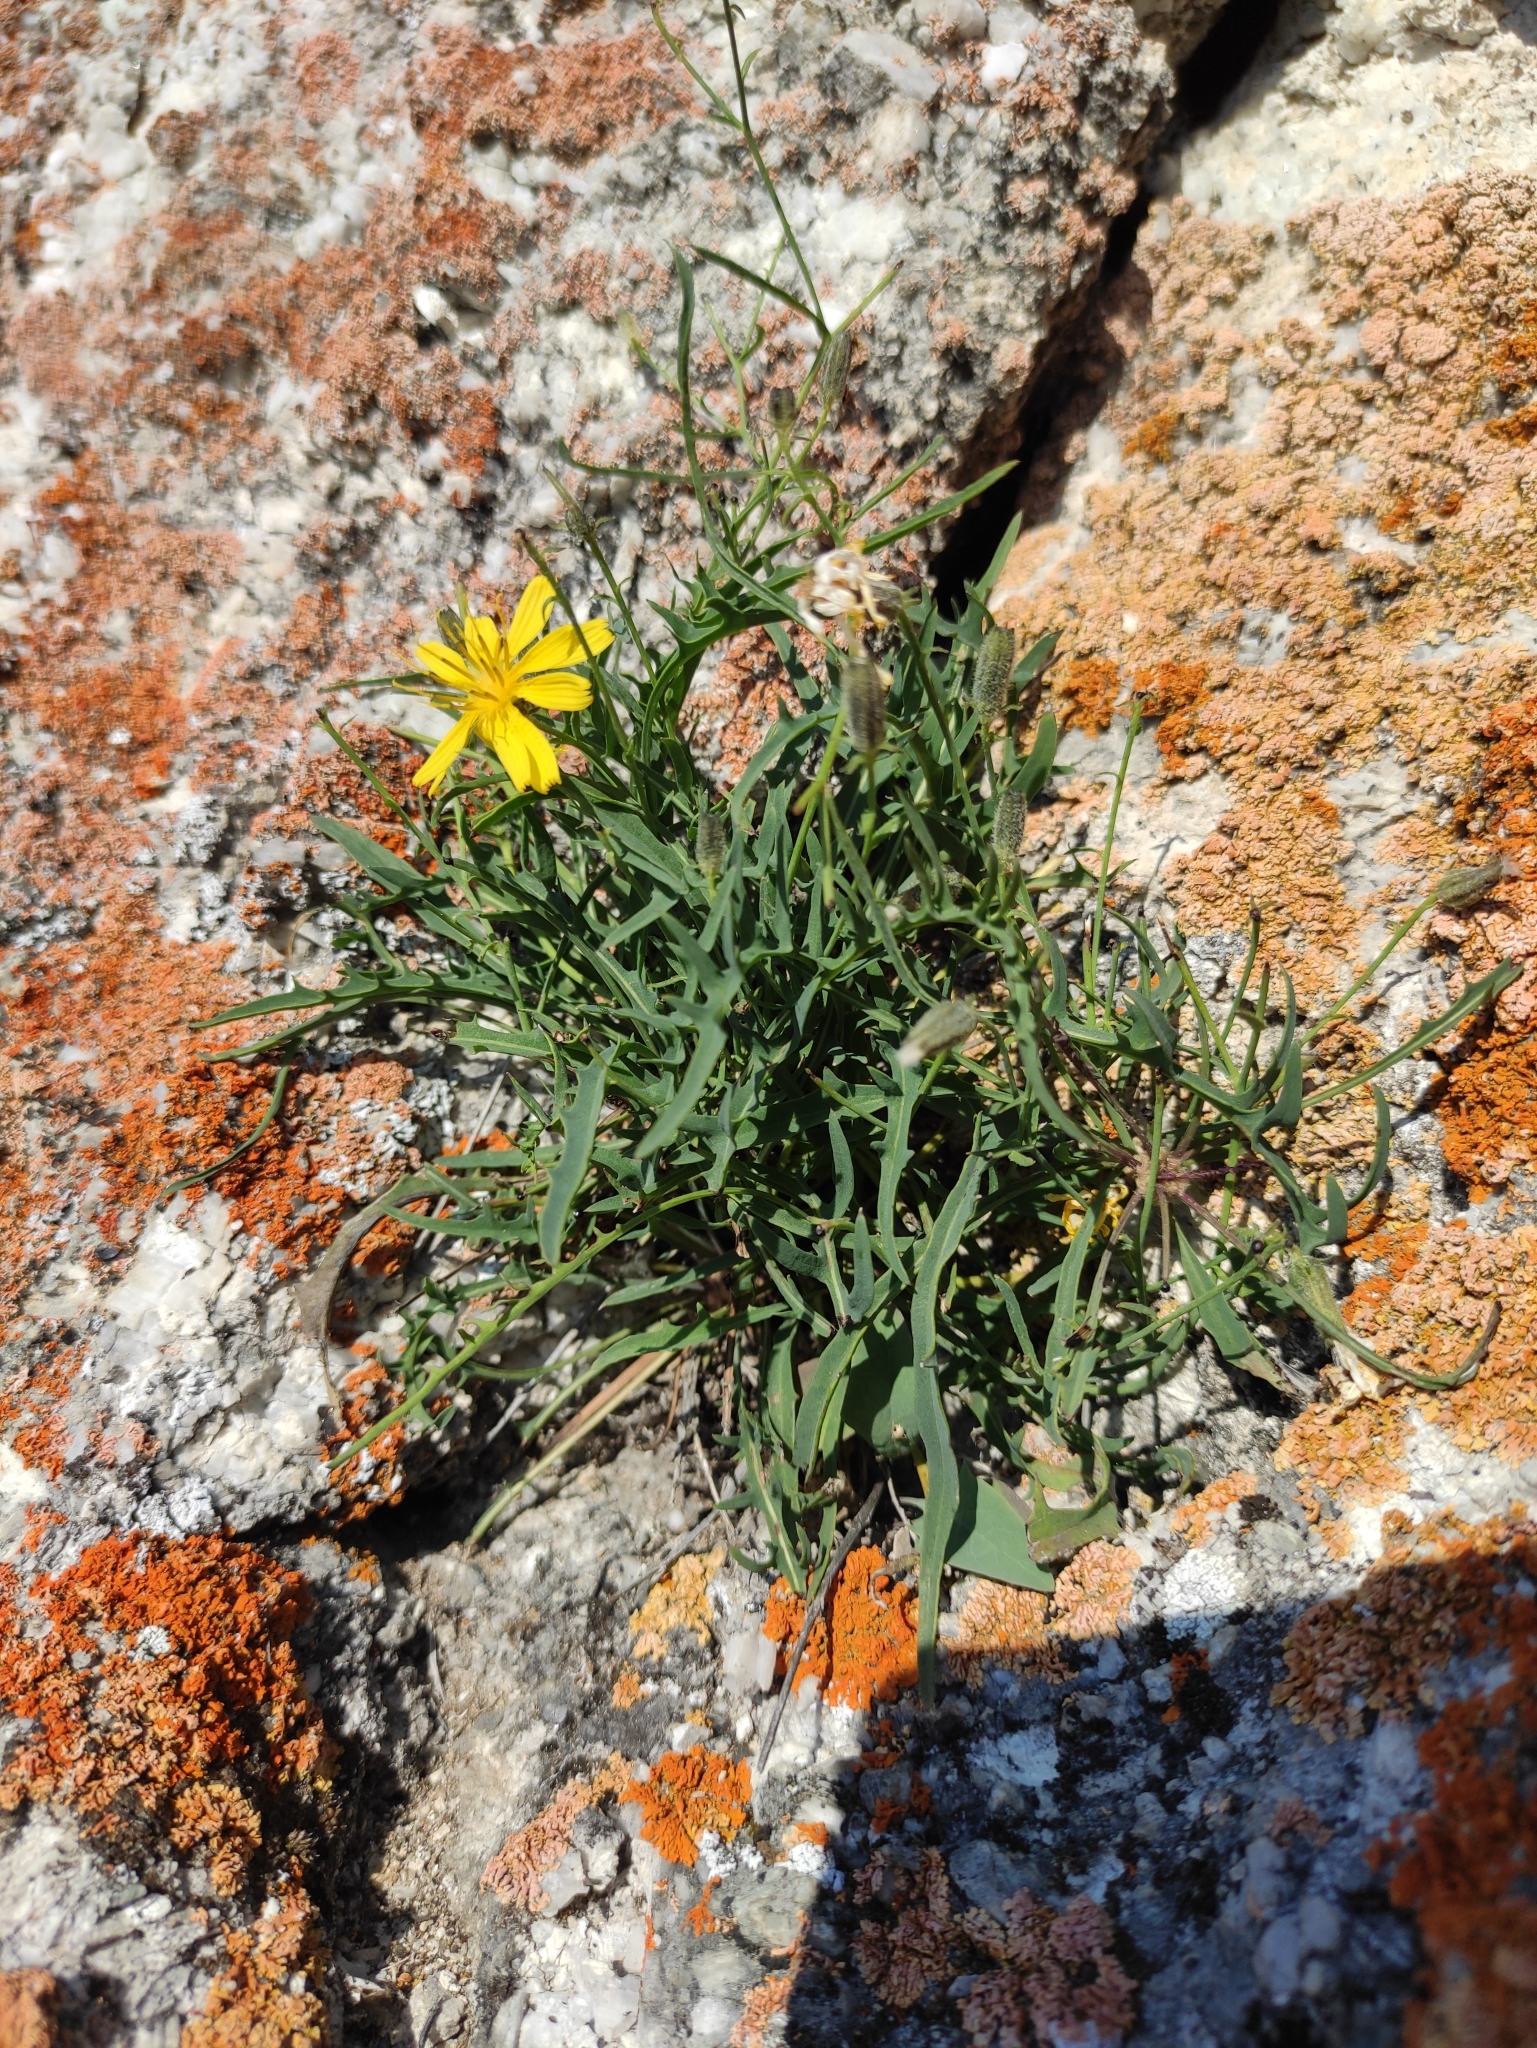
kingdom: Plantae
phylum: Tracheophyta
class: Magnoliopsida
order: Asterales
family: Asteraceae
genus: Crepidiastrum
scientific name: Crepidiastrum tenuifolium
